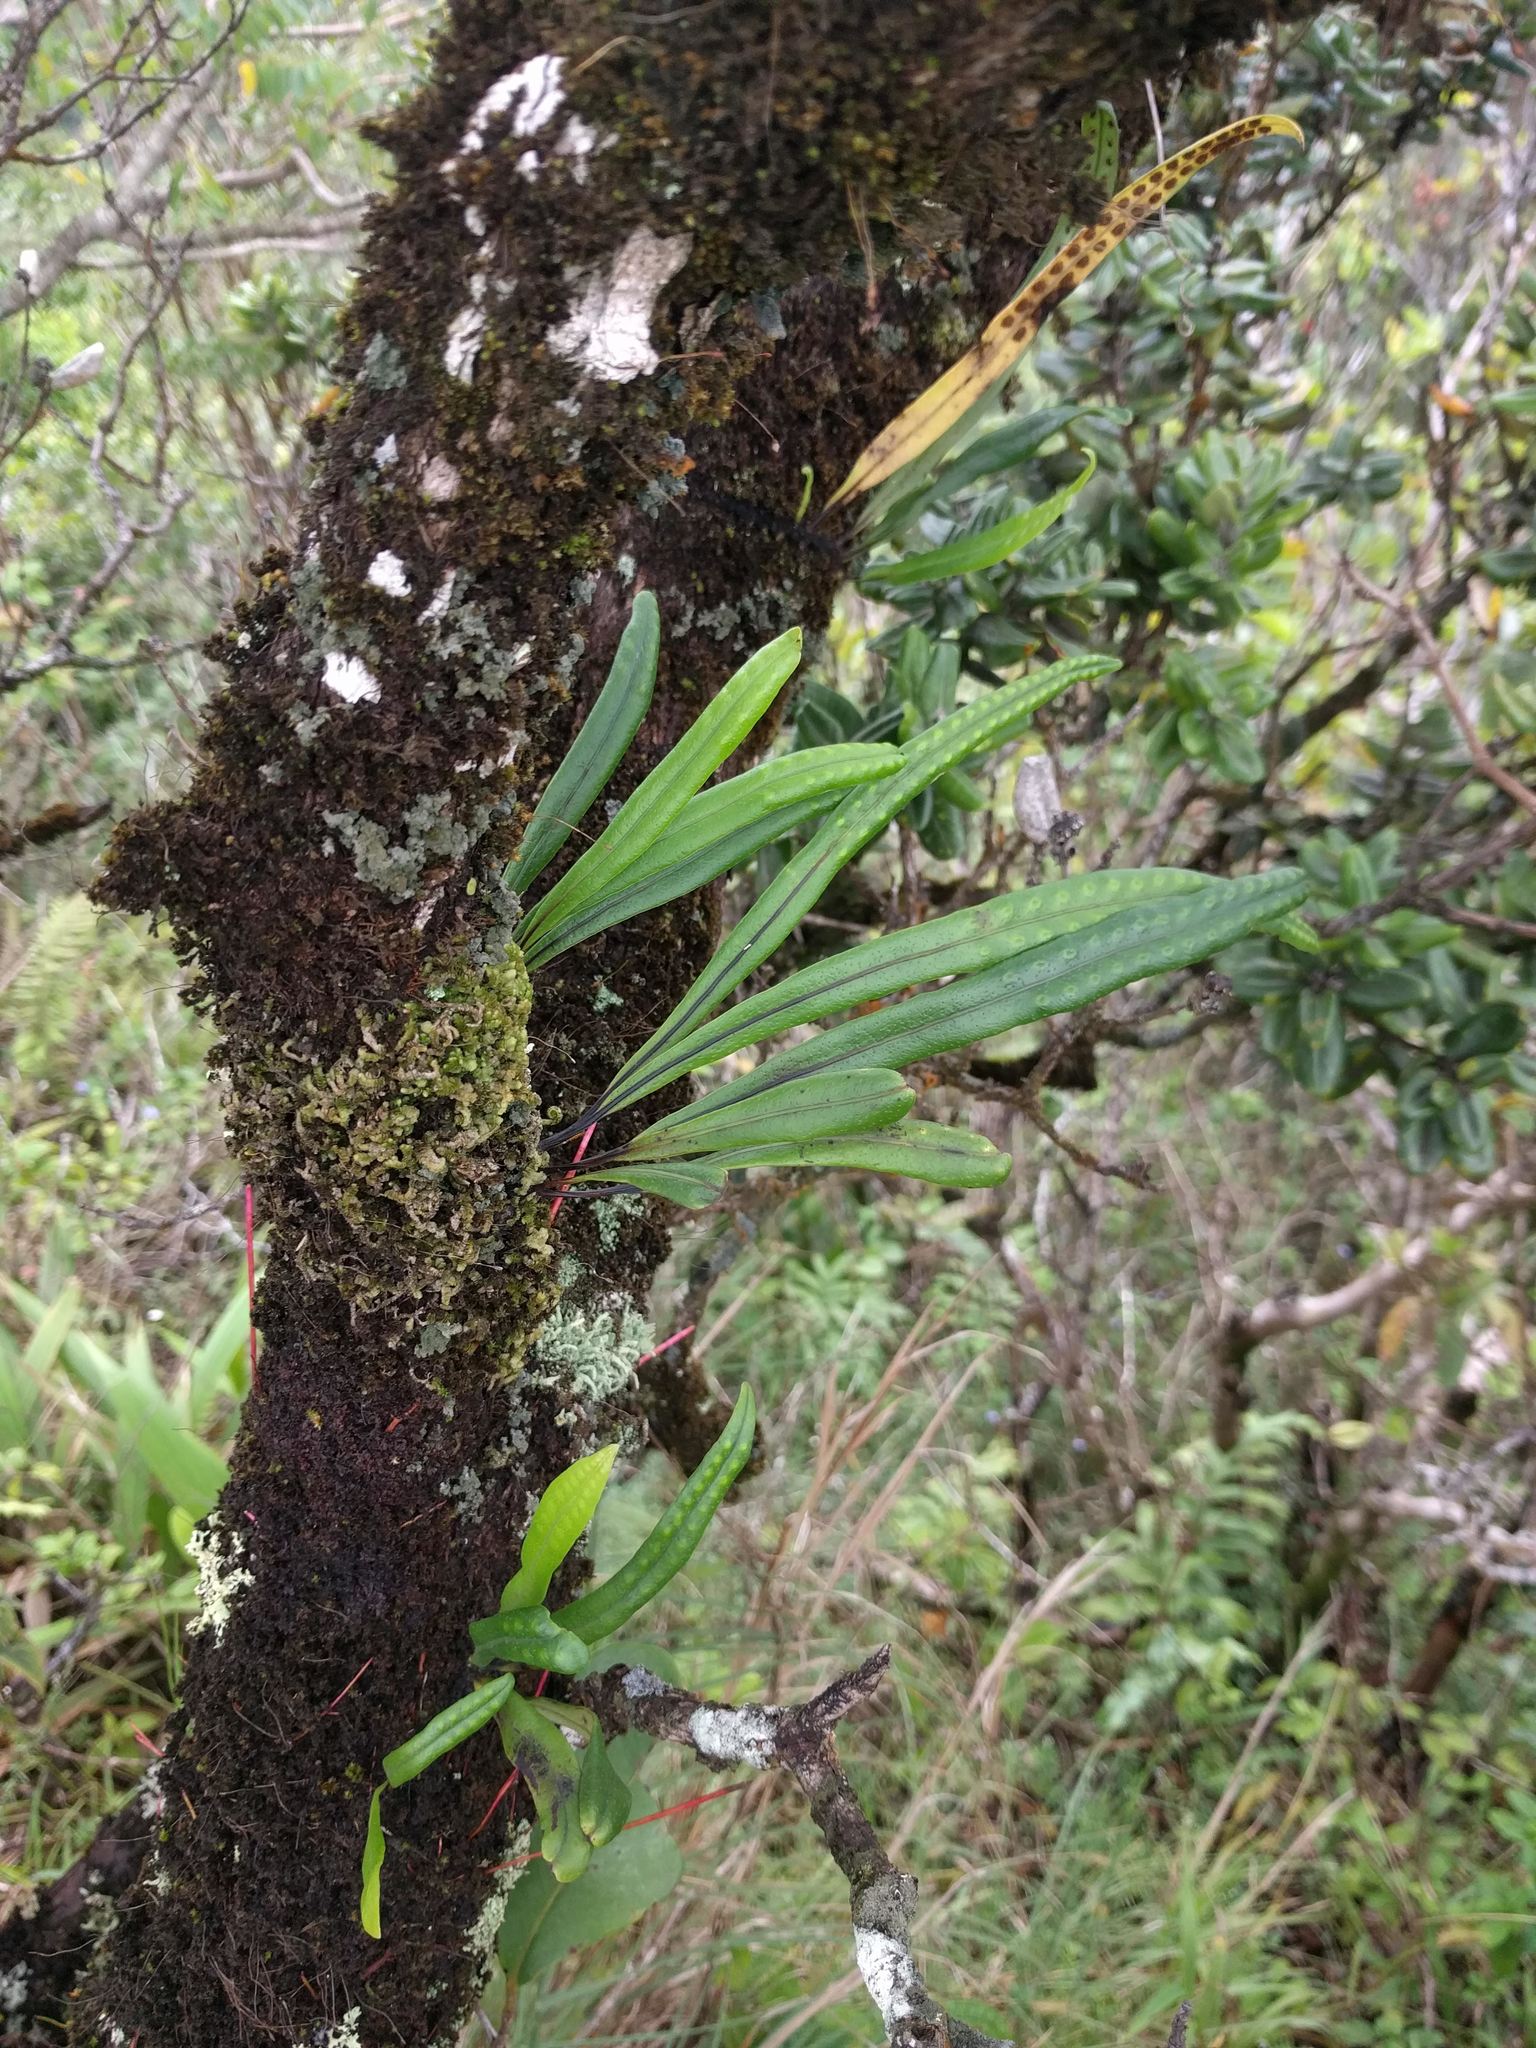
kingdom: Plantae
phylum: Tracheophyta
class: Polypodiopsida
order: Polypodiales
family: Polypodiaceae
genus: Lepisorus
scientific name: Lepisorus thunbergianus
